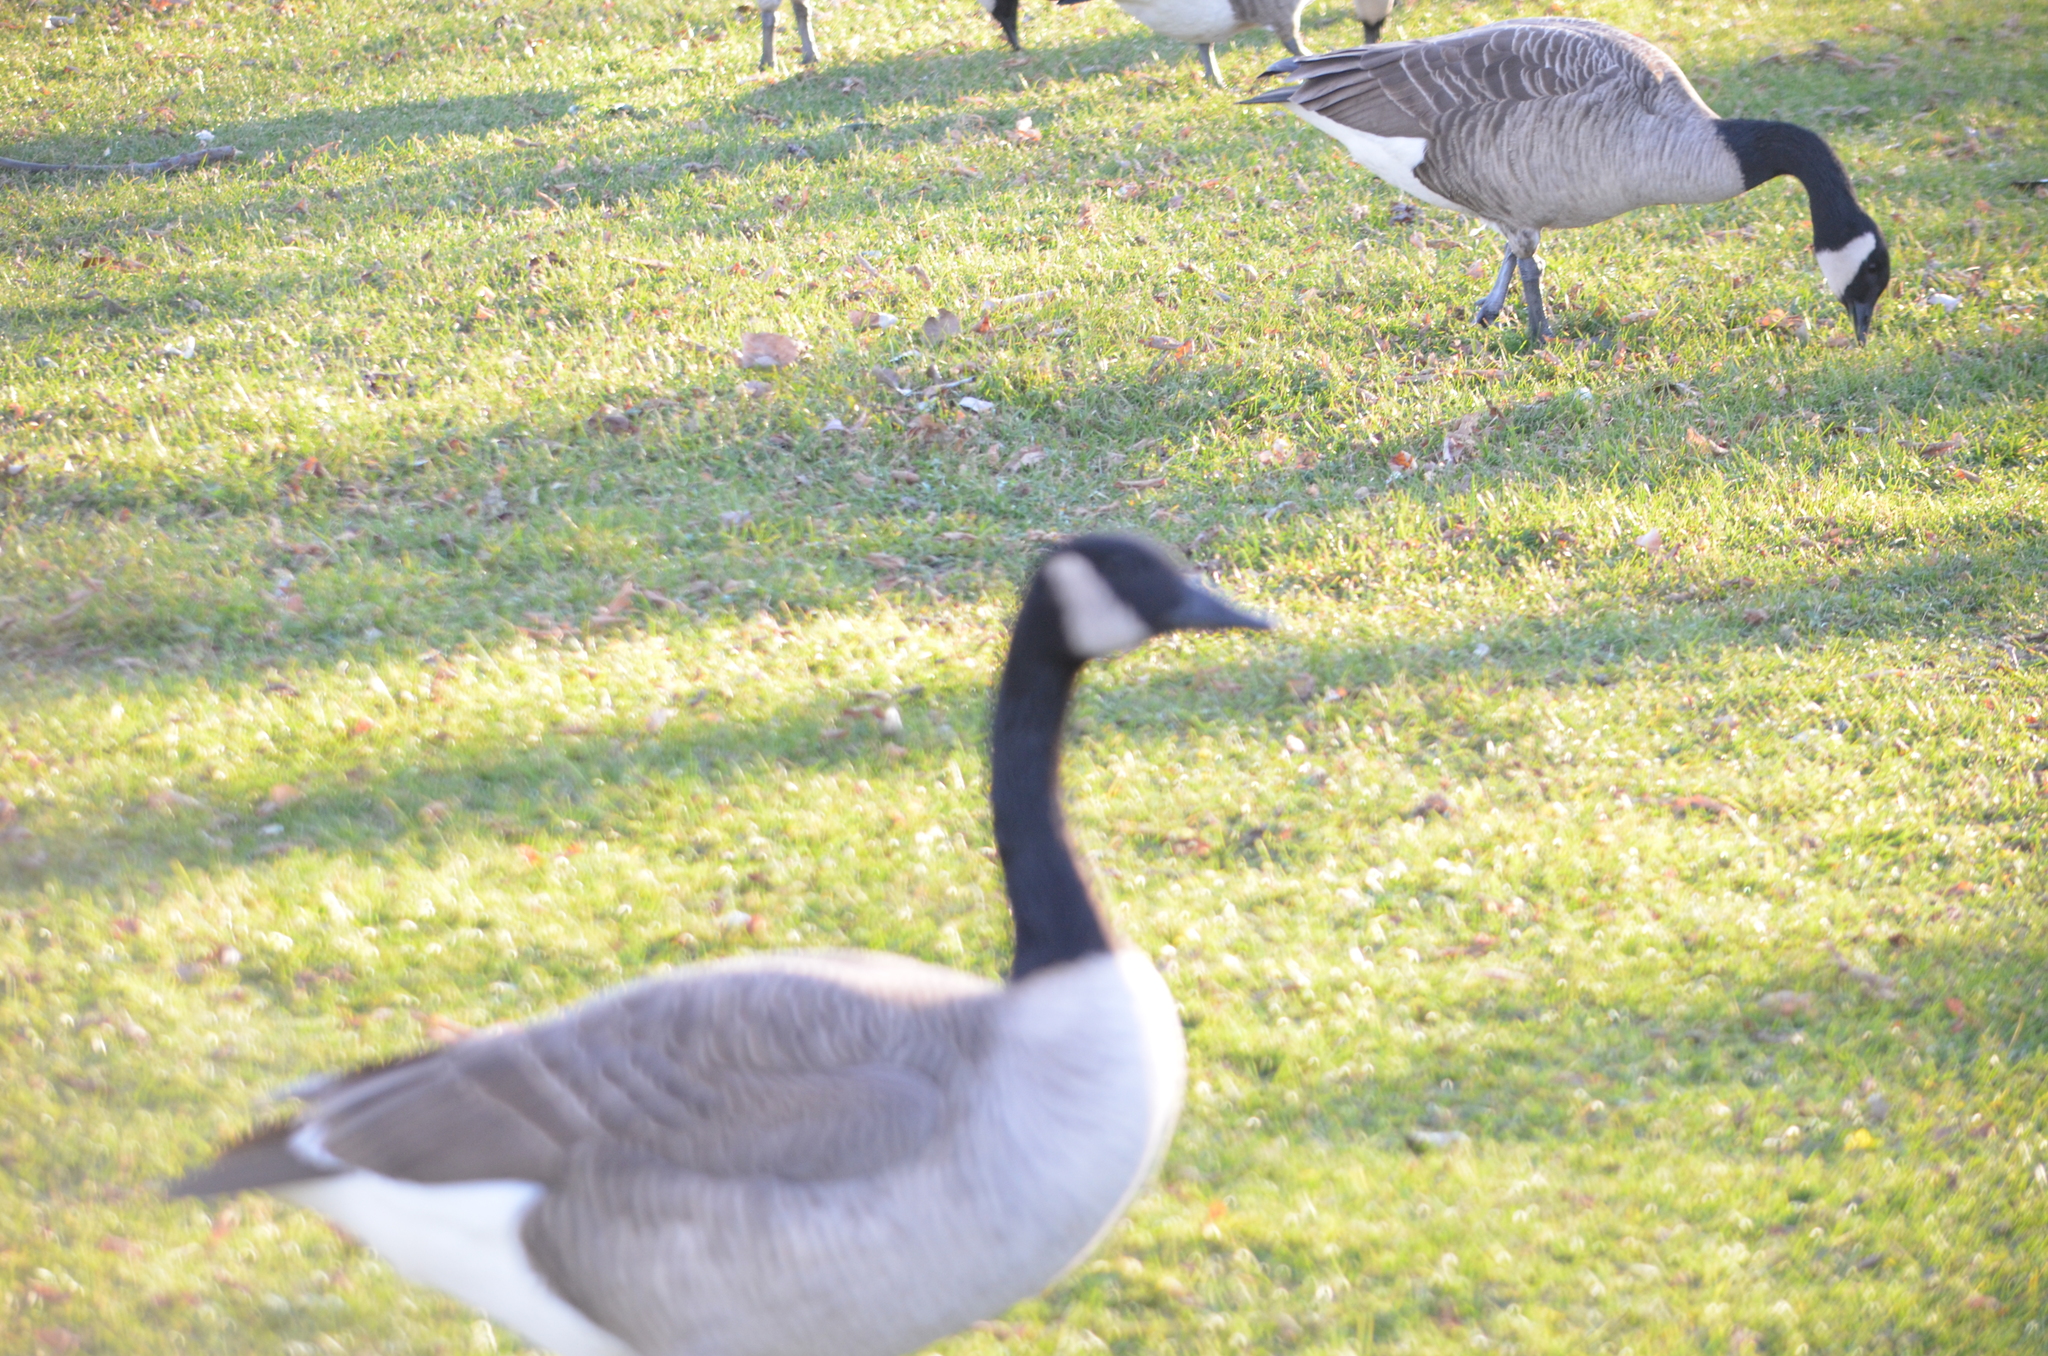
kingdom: Animalia
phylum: Chordata
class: Aves
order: Anseriformes
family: Anatidae
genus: Branta
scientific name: Branta canadensis
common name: Canada goose
